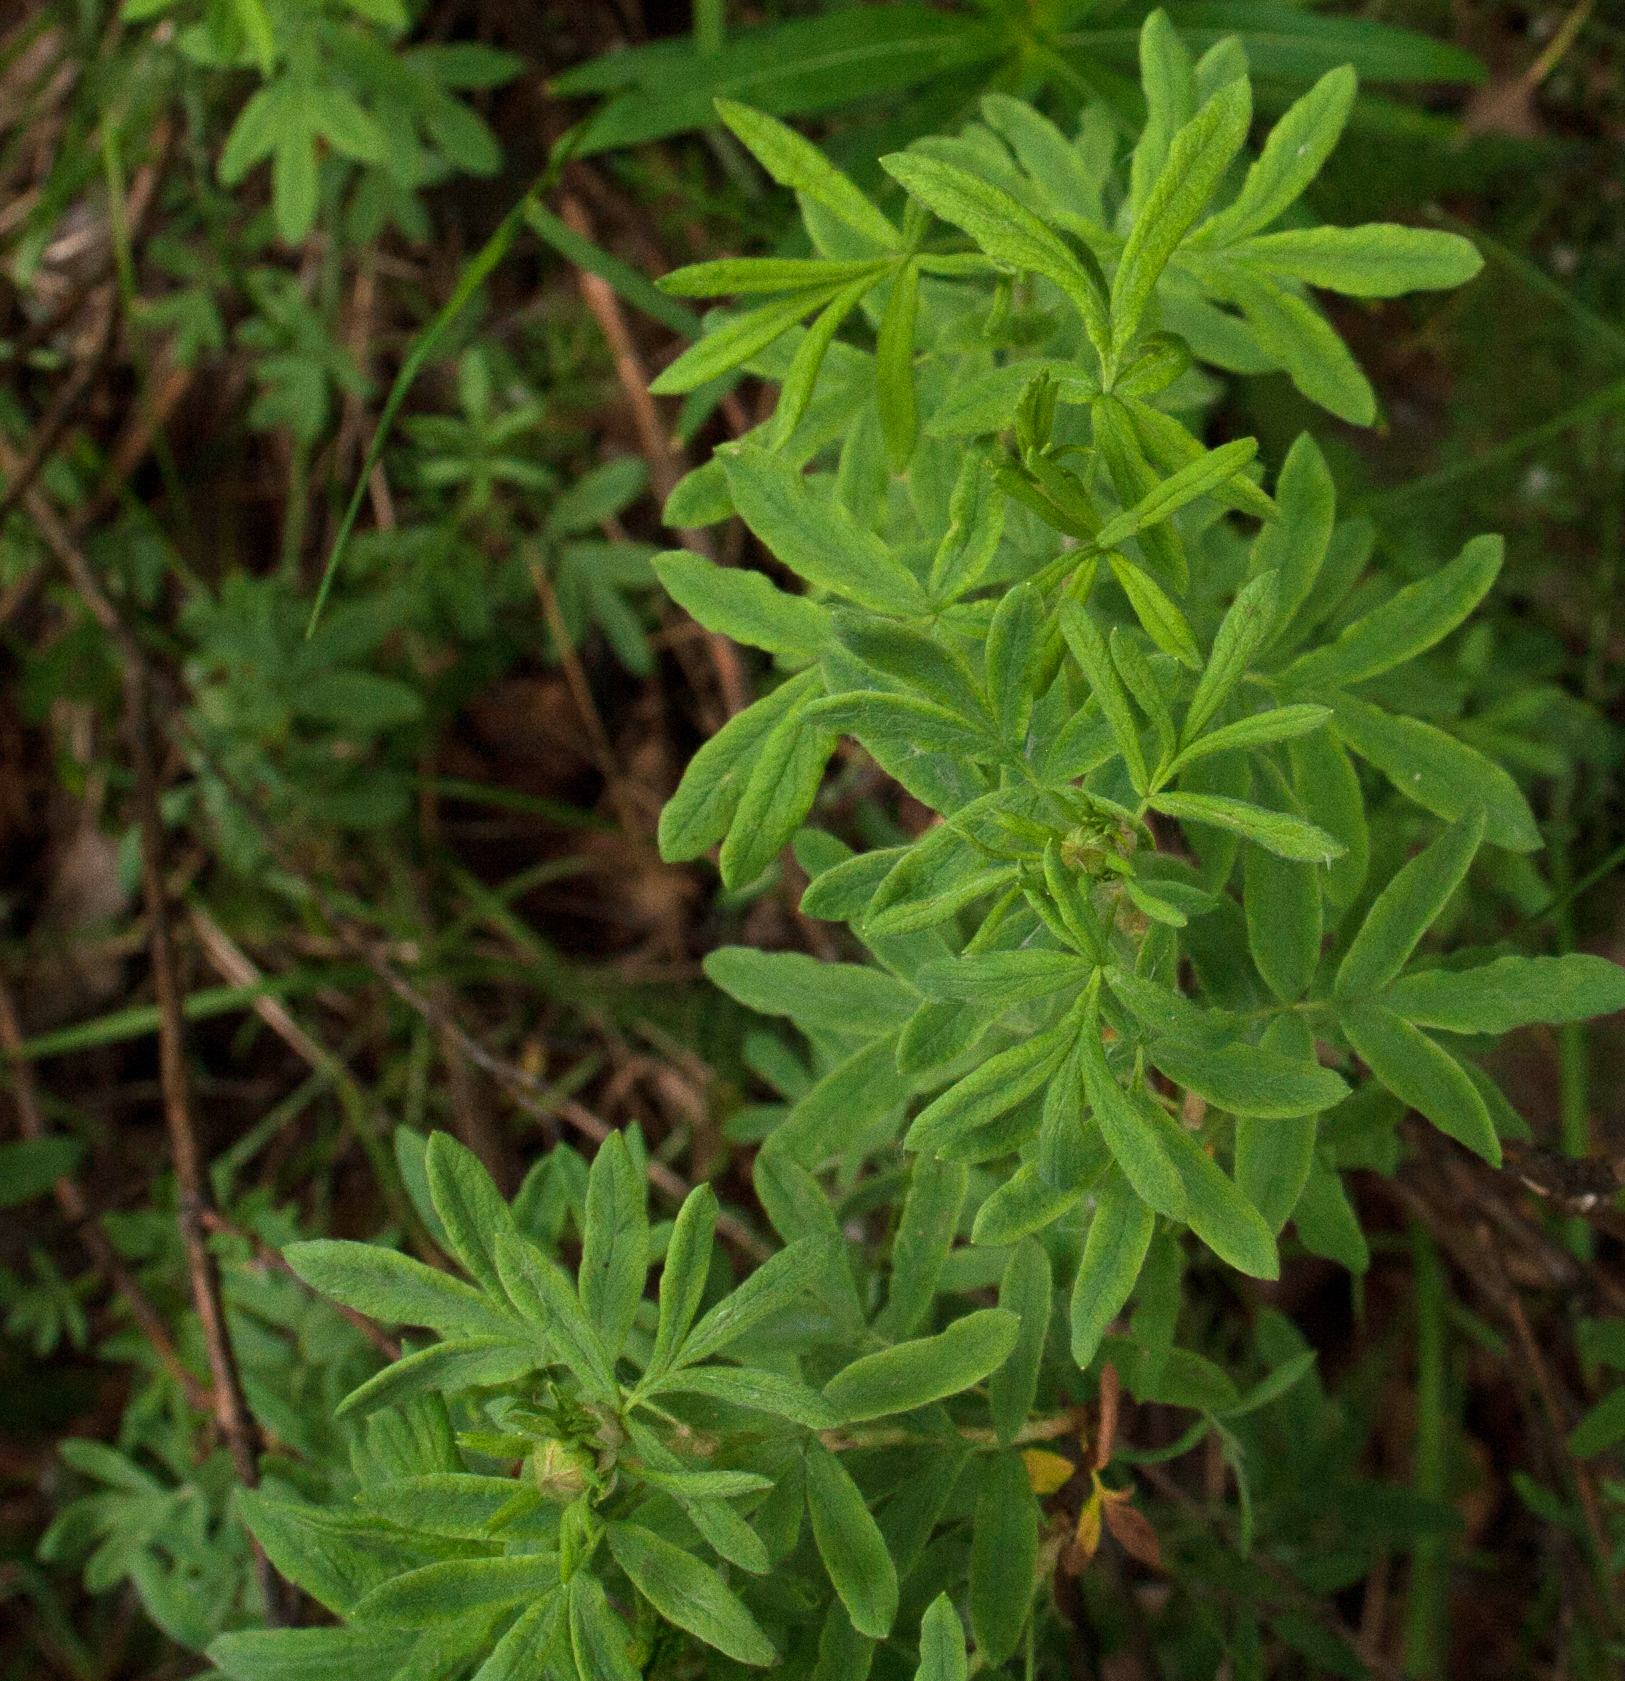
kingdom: Plantae
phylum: Tracheophyta
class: Magnoliopsida
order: Rosales
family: Rosaceae
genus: Dasiphora
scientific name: Dasiphora fruticosa
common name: Shrubby cinquefoil
